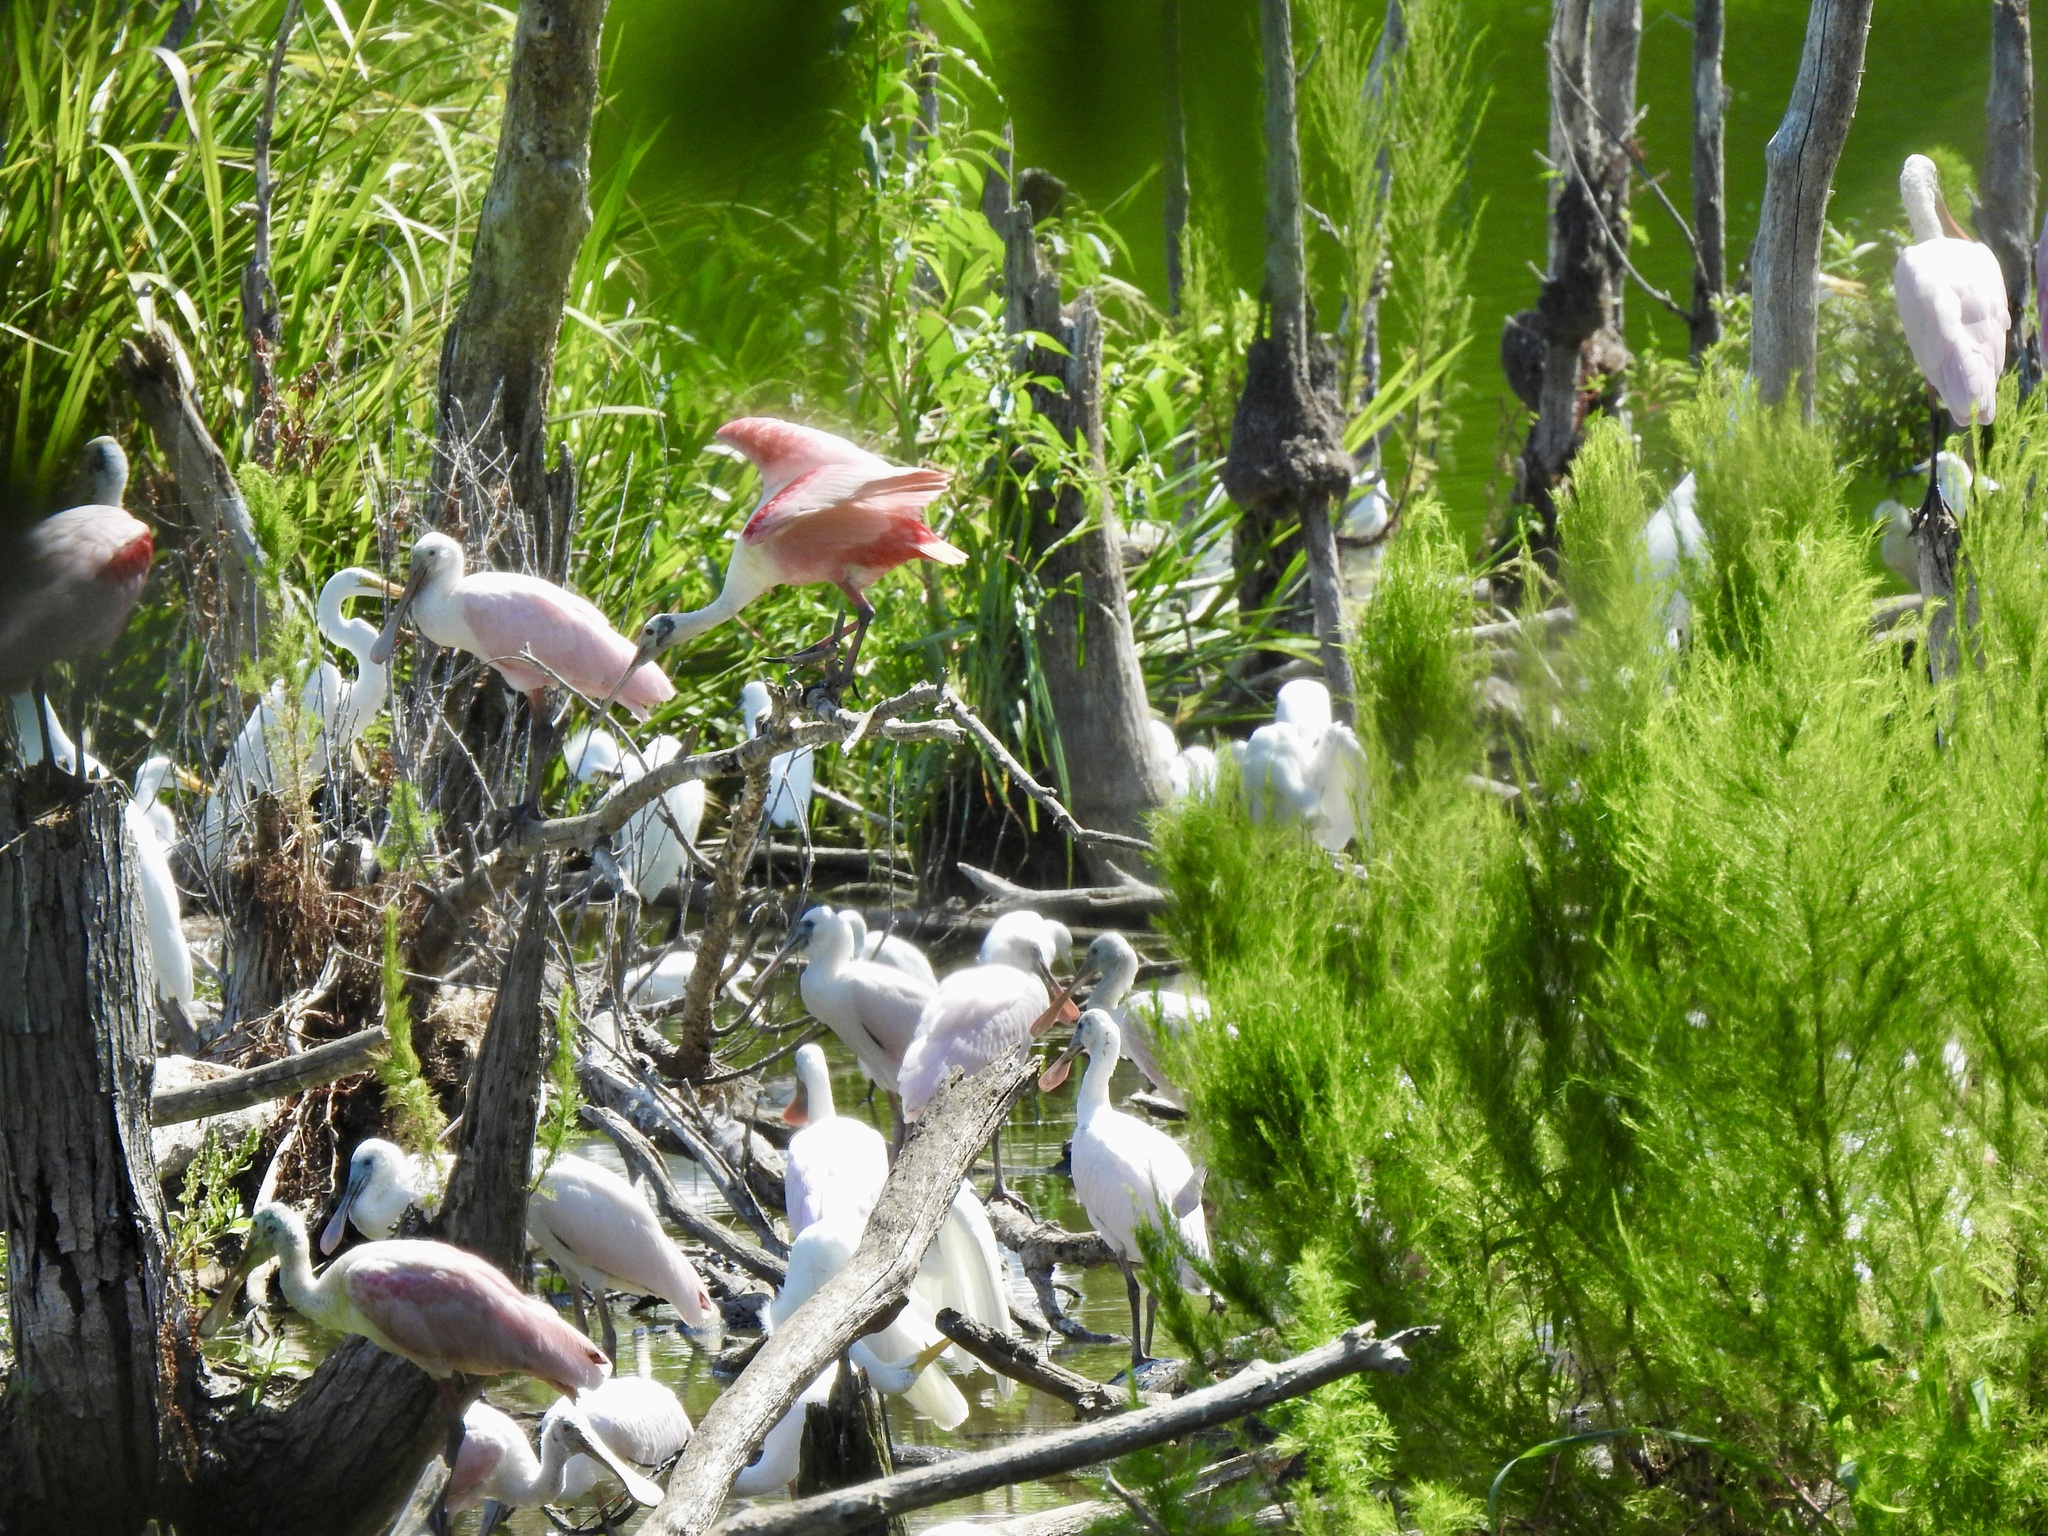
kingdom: Animalia
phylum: Chordata
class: Aves
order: Pelecaniformes
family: Threskiornithidae
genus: Platalea
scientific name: Platalea ajaja
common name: Roseate spoonbill
